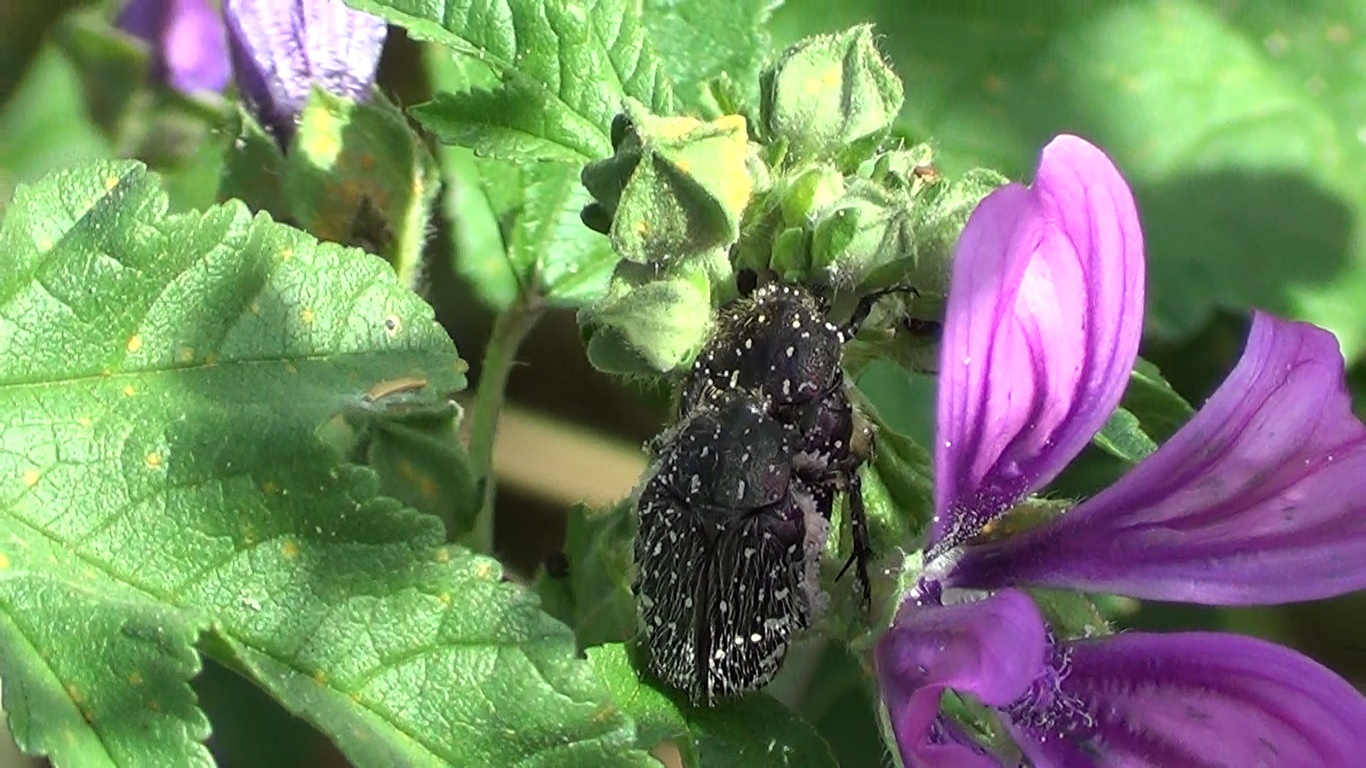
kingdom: Animalia
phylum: Arthropoda
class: Insecta
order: Coleoptera
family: Scarabaeidae
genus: Oxythyrea
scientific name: Oxythyrea funesta
